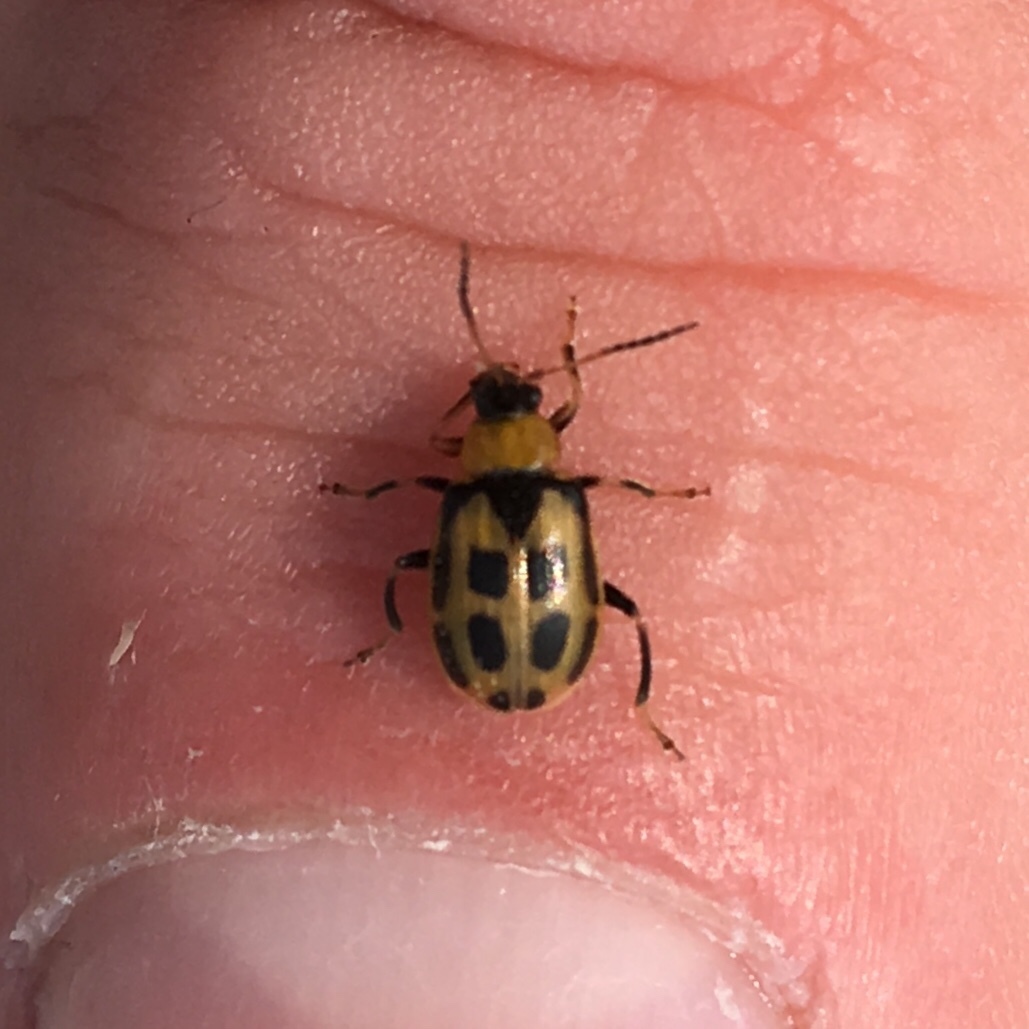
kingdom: Animalia
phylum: Arthropoda
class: Insecta
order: Coleoptera
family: Chrysomelidae
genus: Cerotoma
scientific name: Cerotoma trifurcata
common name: Bean leaf beetle
